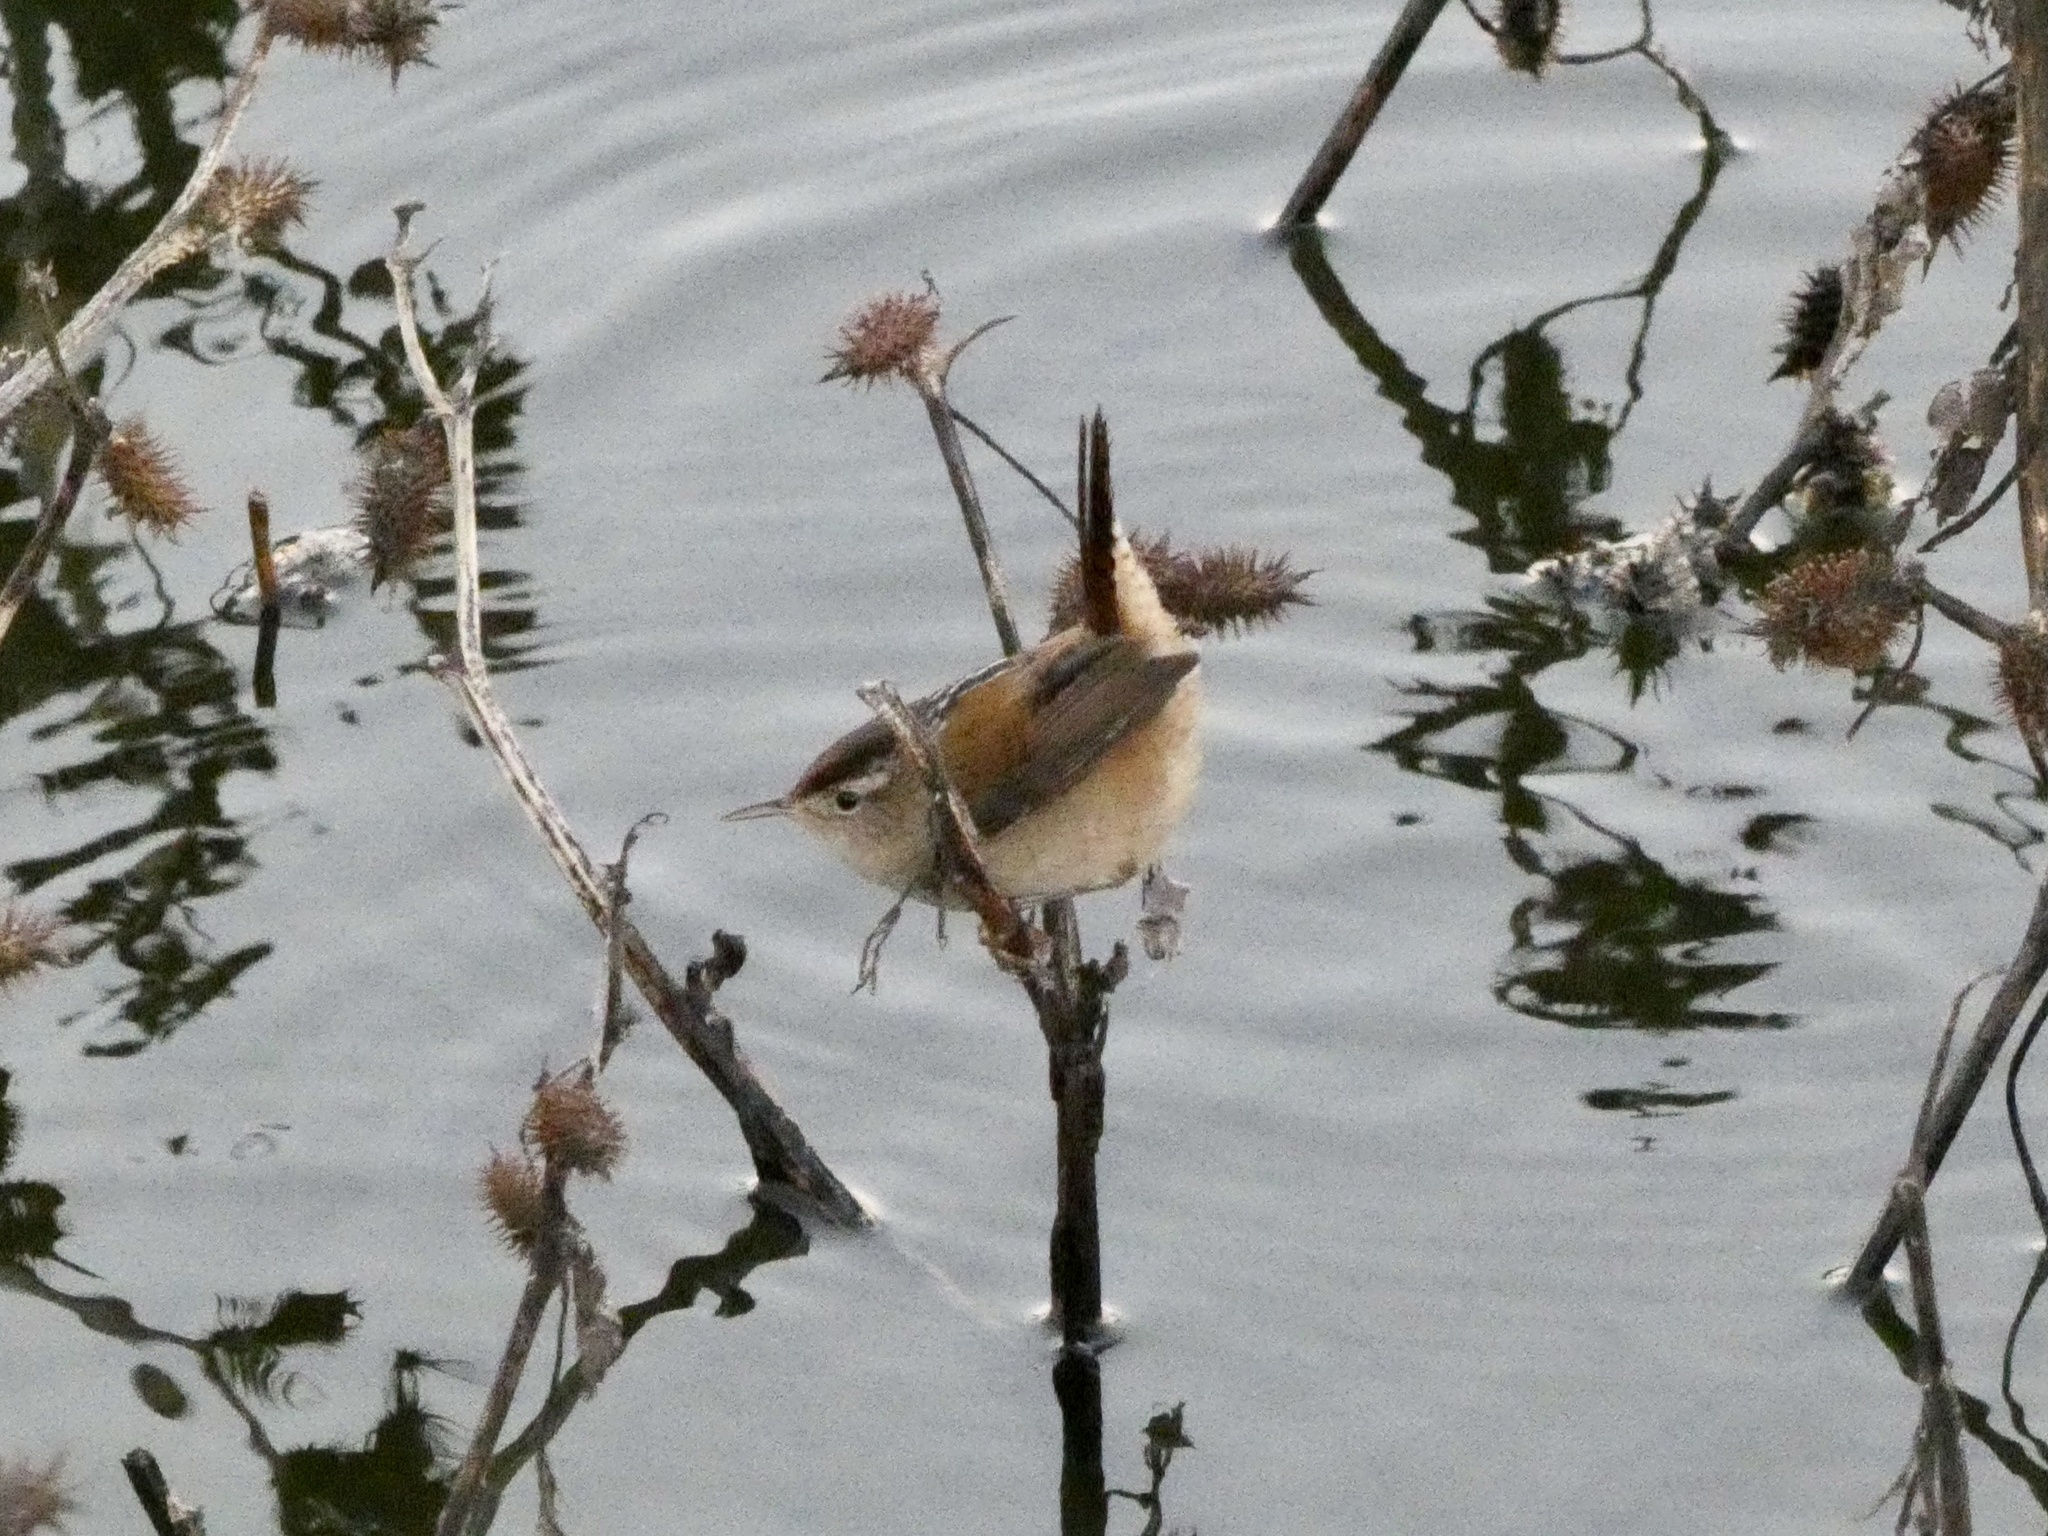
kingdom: Animalia
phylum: Chordata
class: Aves
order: Passeriformes
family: Troglodytidae
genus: Cistothorus
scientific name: Cistothorus palustris
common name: Marsh wren
